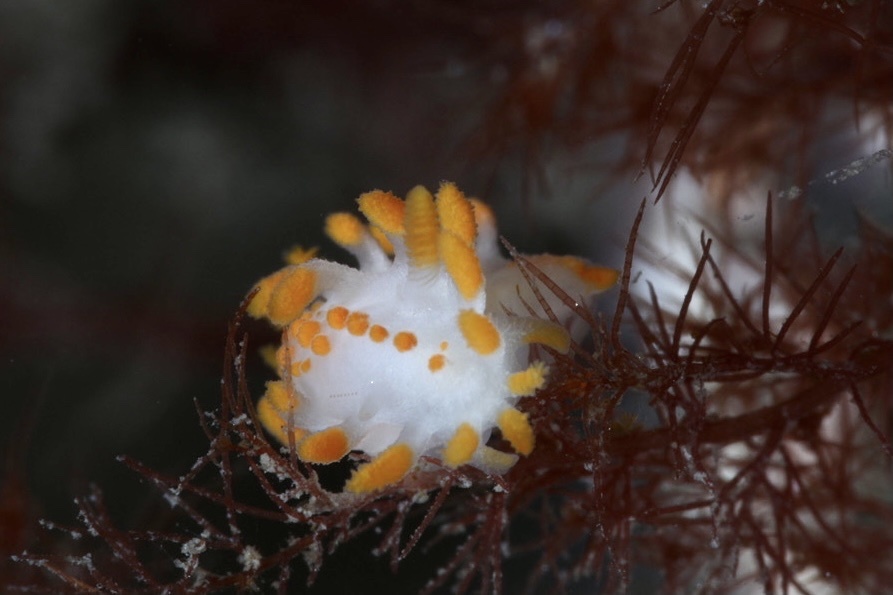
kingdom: Animalia
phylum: Mollusca
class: Gastropoda
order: Nudibranchia
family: Polyceridae
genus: Limacia
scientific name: Limacia clavigera
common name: Orange-clubbed sea slug
